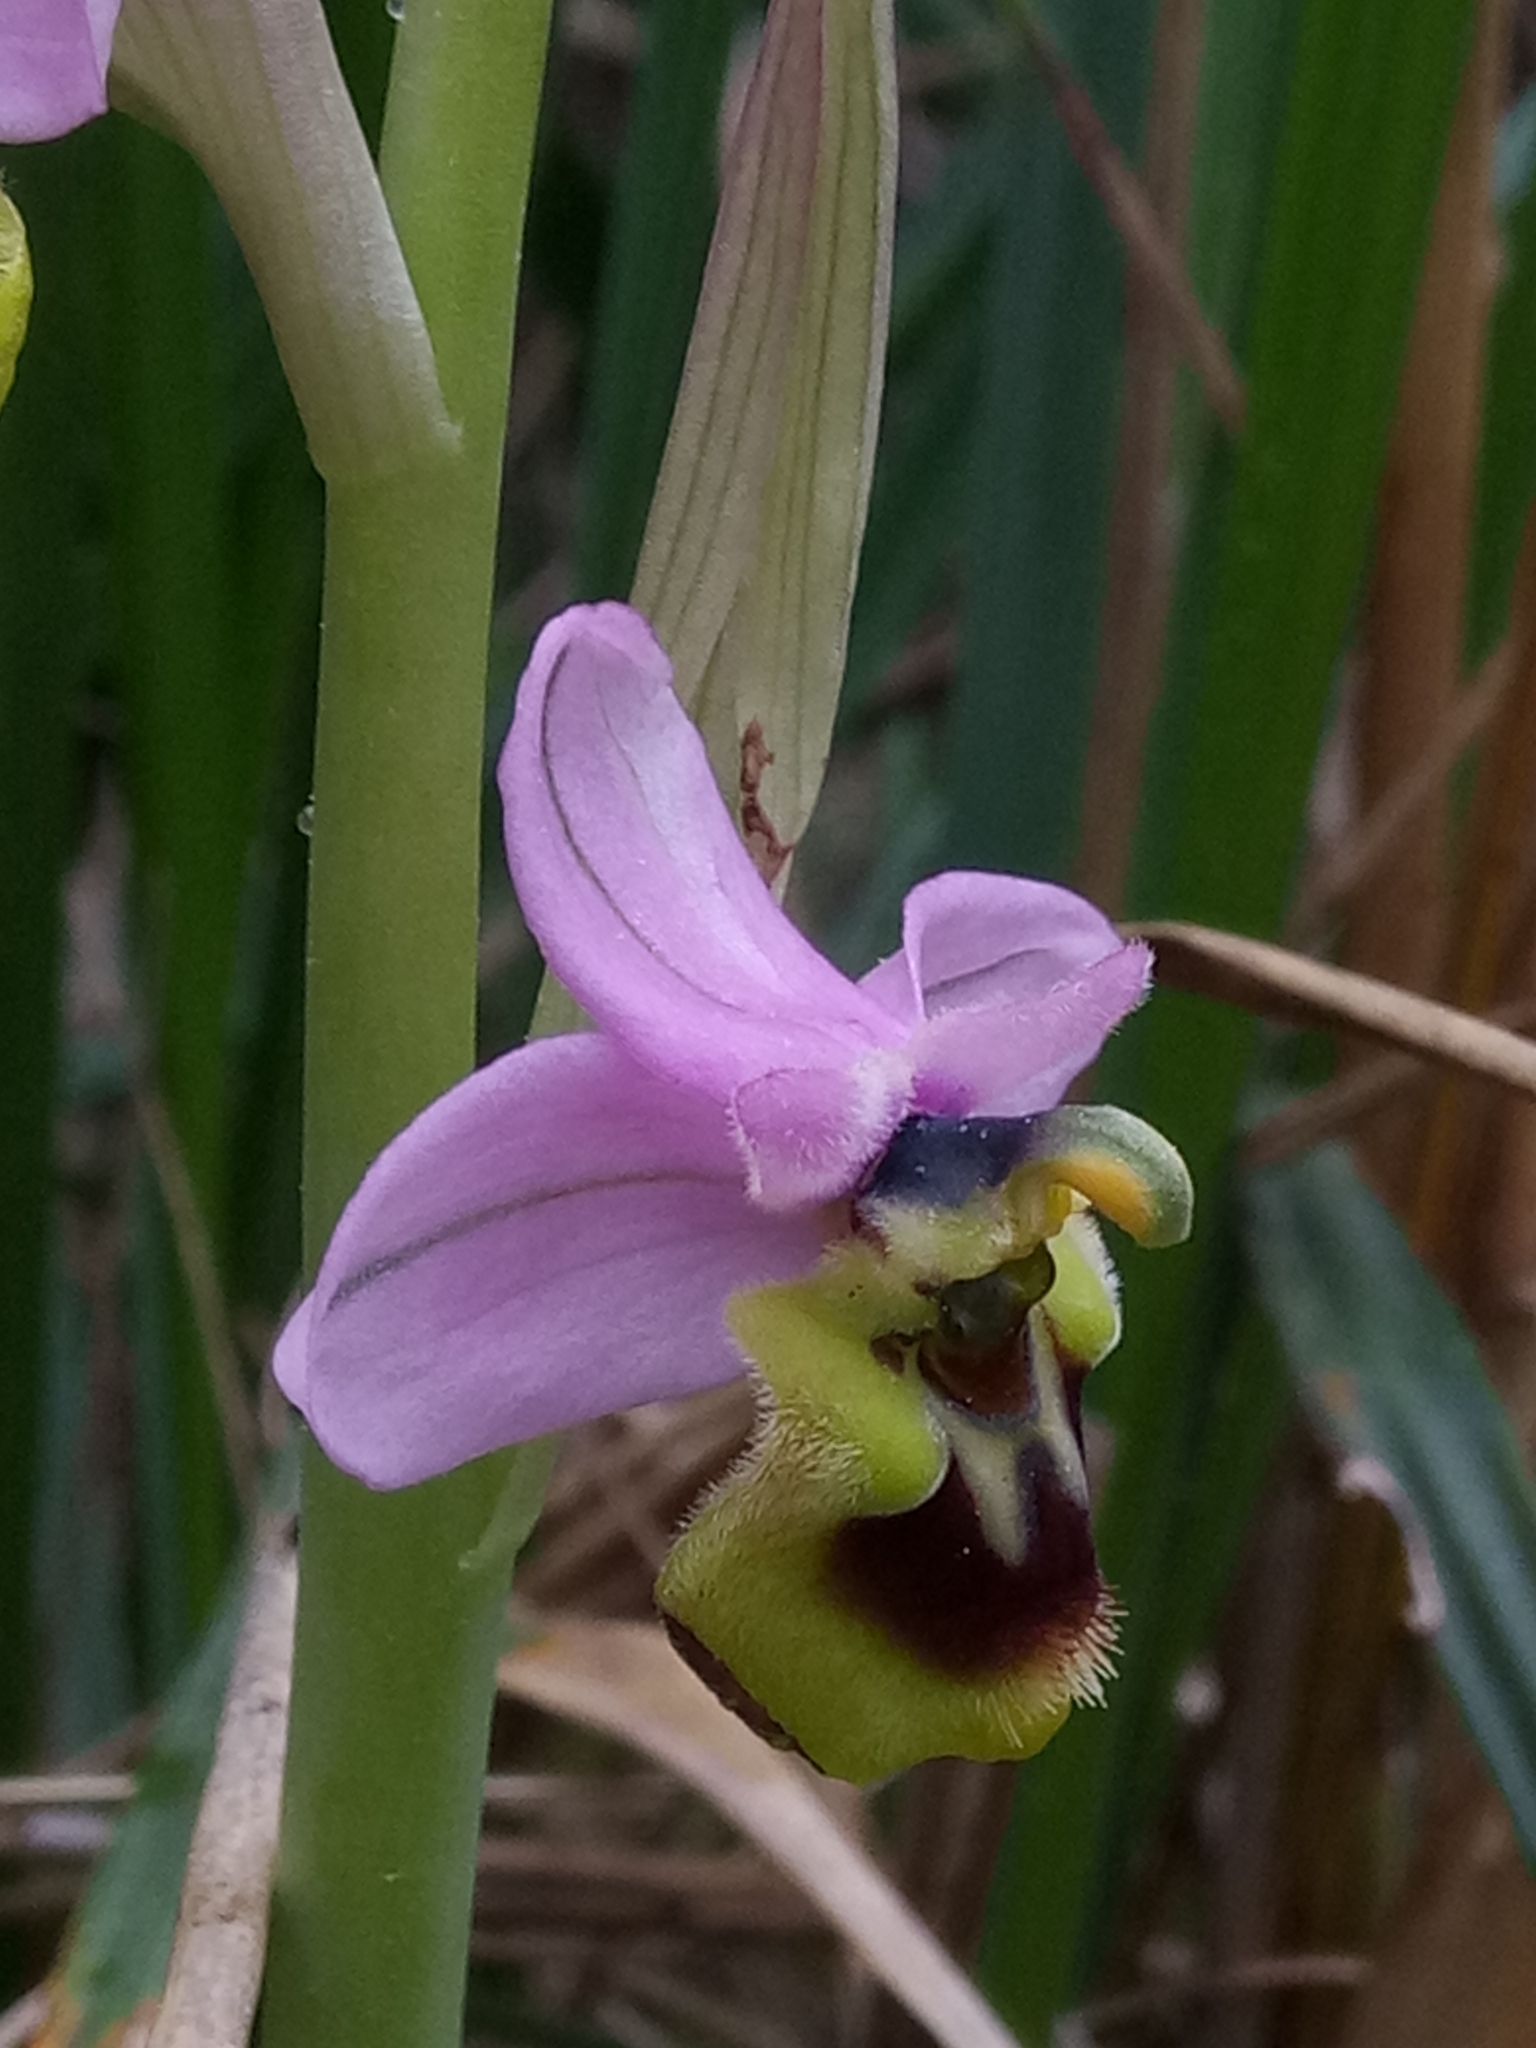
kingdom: Plantae
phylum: Tracheophyta
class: Liliopsida
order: Asparagales
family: Orchidaceae
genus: Ophrys
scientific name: Ophrys tenthredinifera
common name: Sawfly orchid
